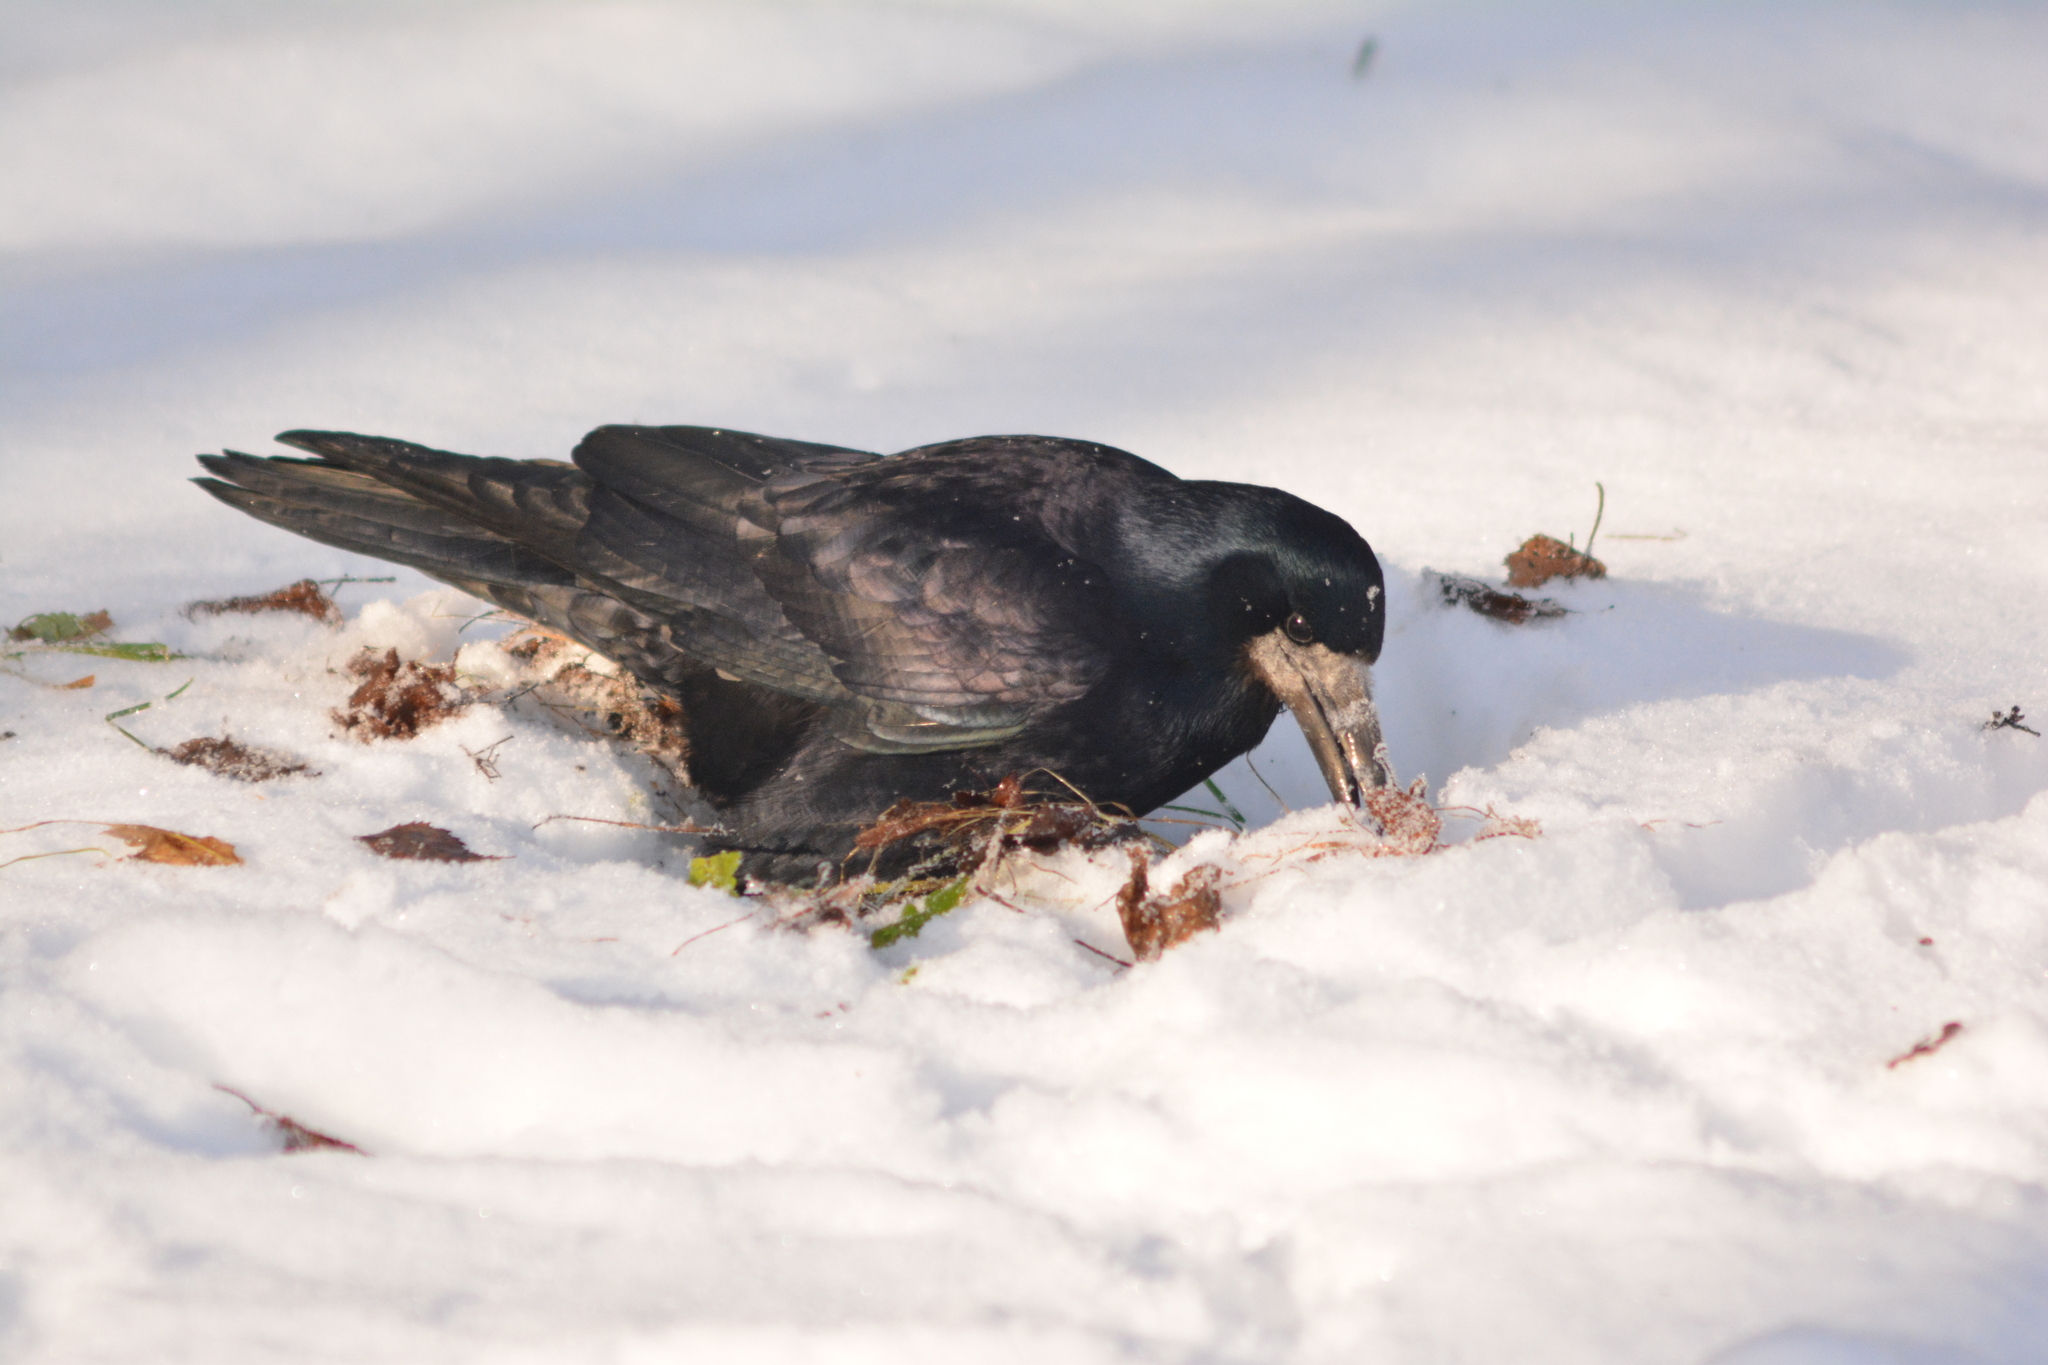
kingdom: Animalia
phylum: Chordata
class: Aves
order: Passeriformes
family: Corvidae
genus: Corvus
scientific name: Corvus frugilegus
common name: Rook
